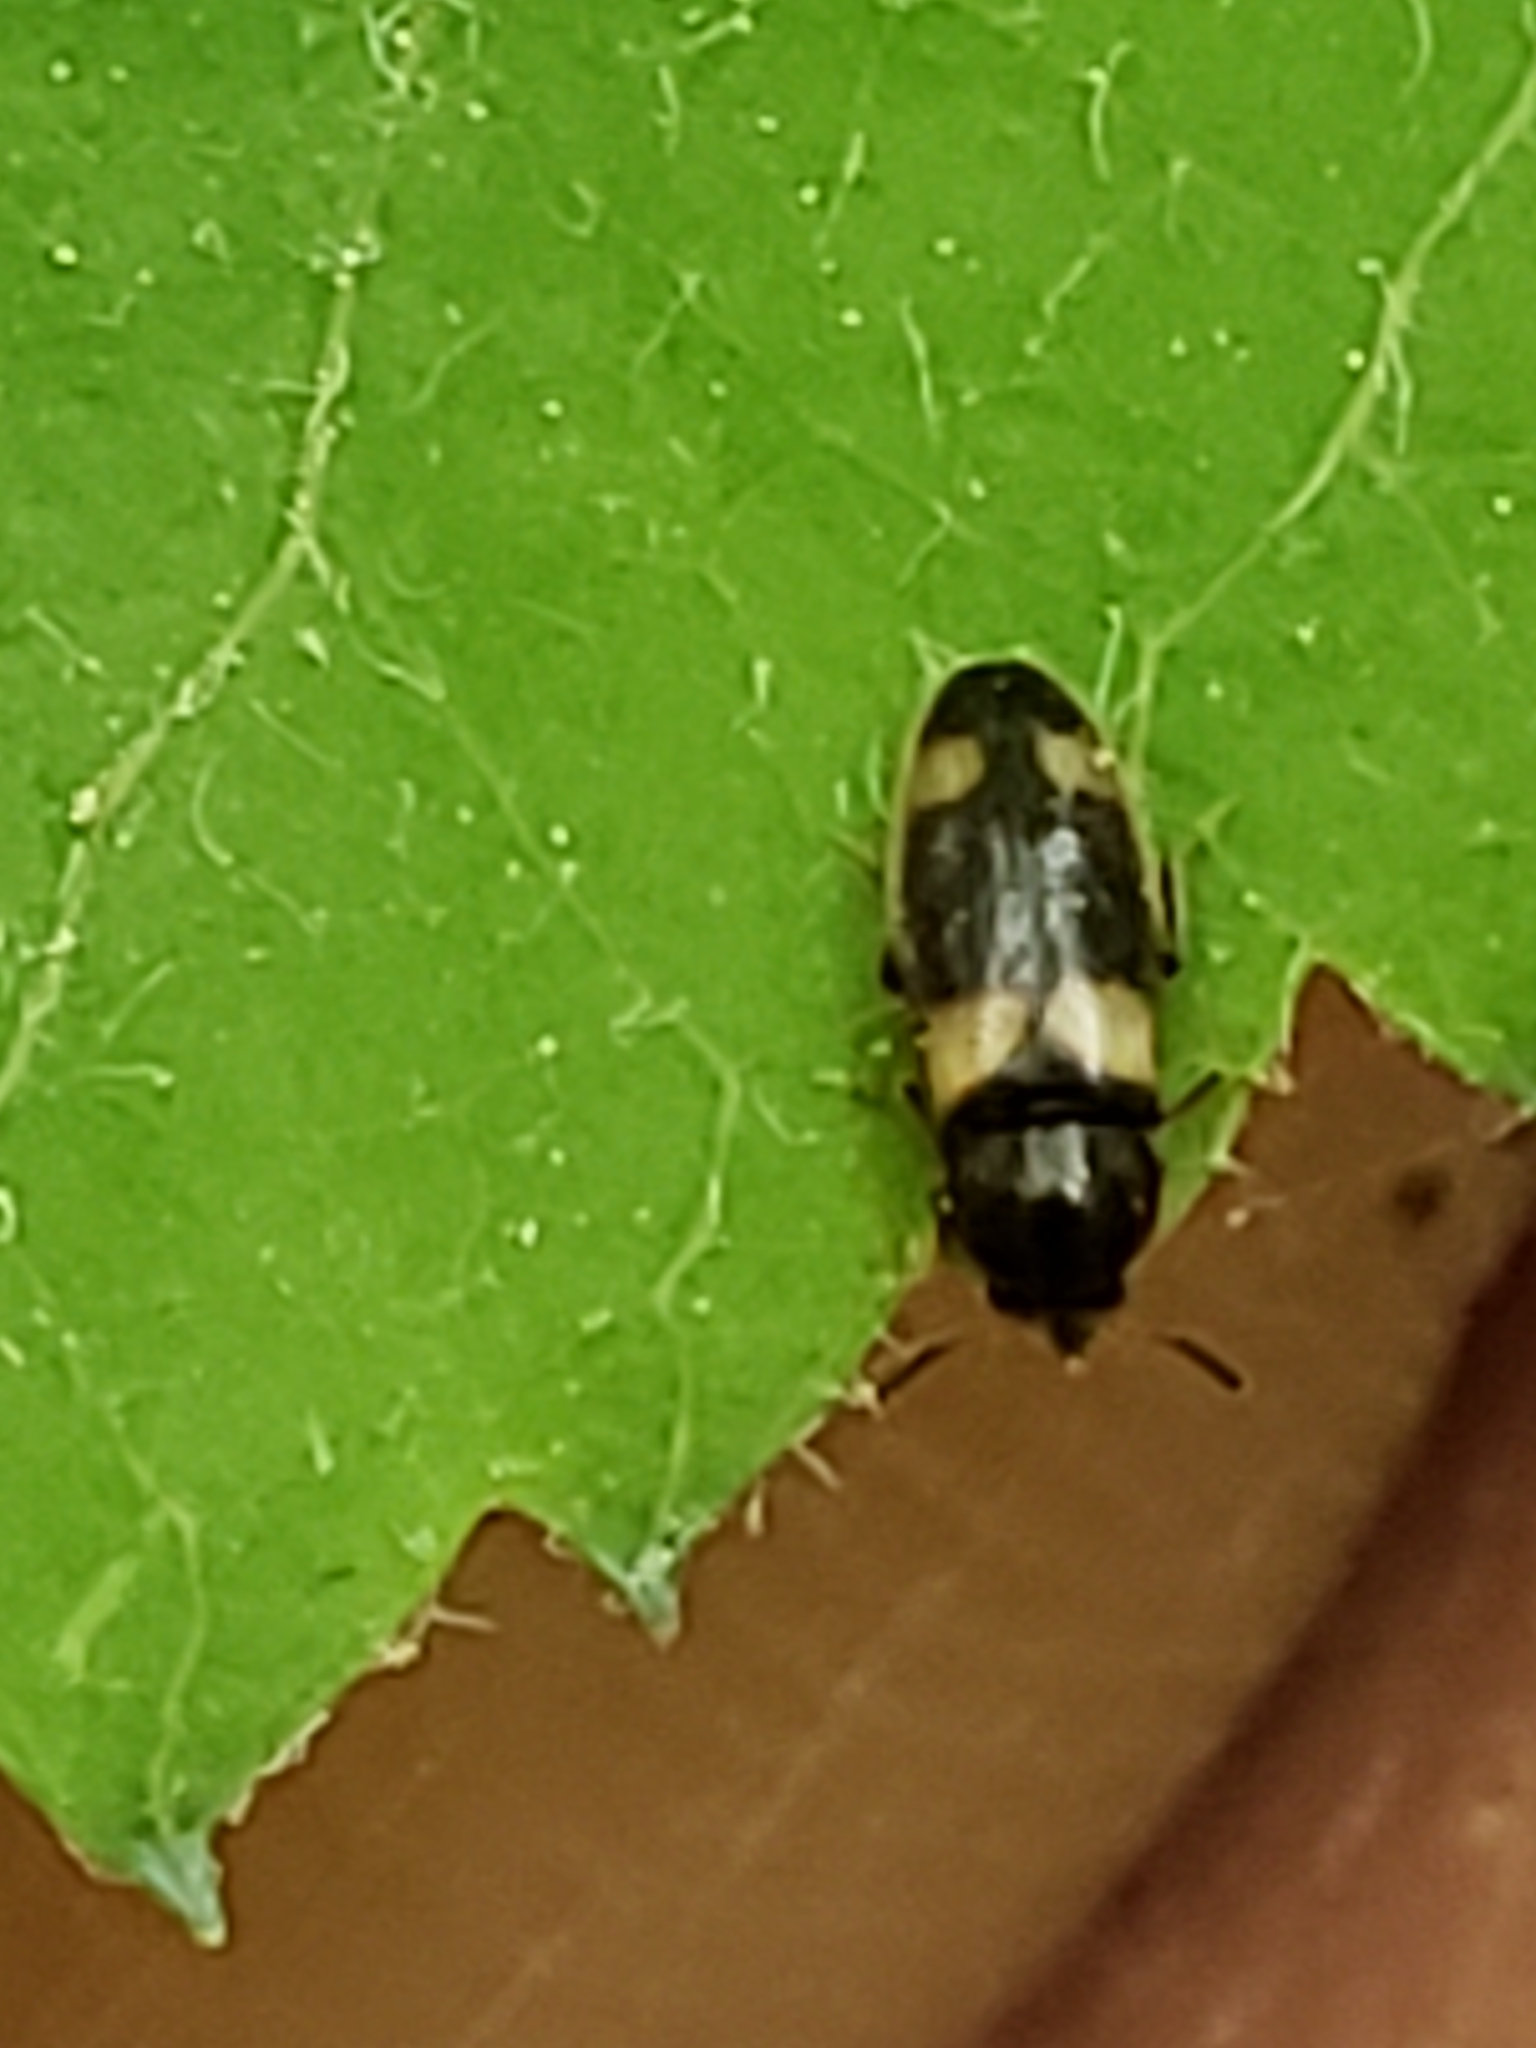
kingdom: Animalia
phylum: Arthropoda
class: Insecta
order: Coleoptera
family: Melandryidae
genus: Spilotus
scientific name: Spilotus quadripustulatus
